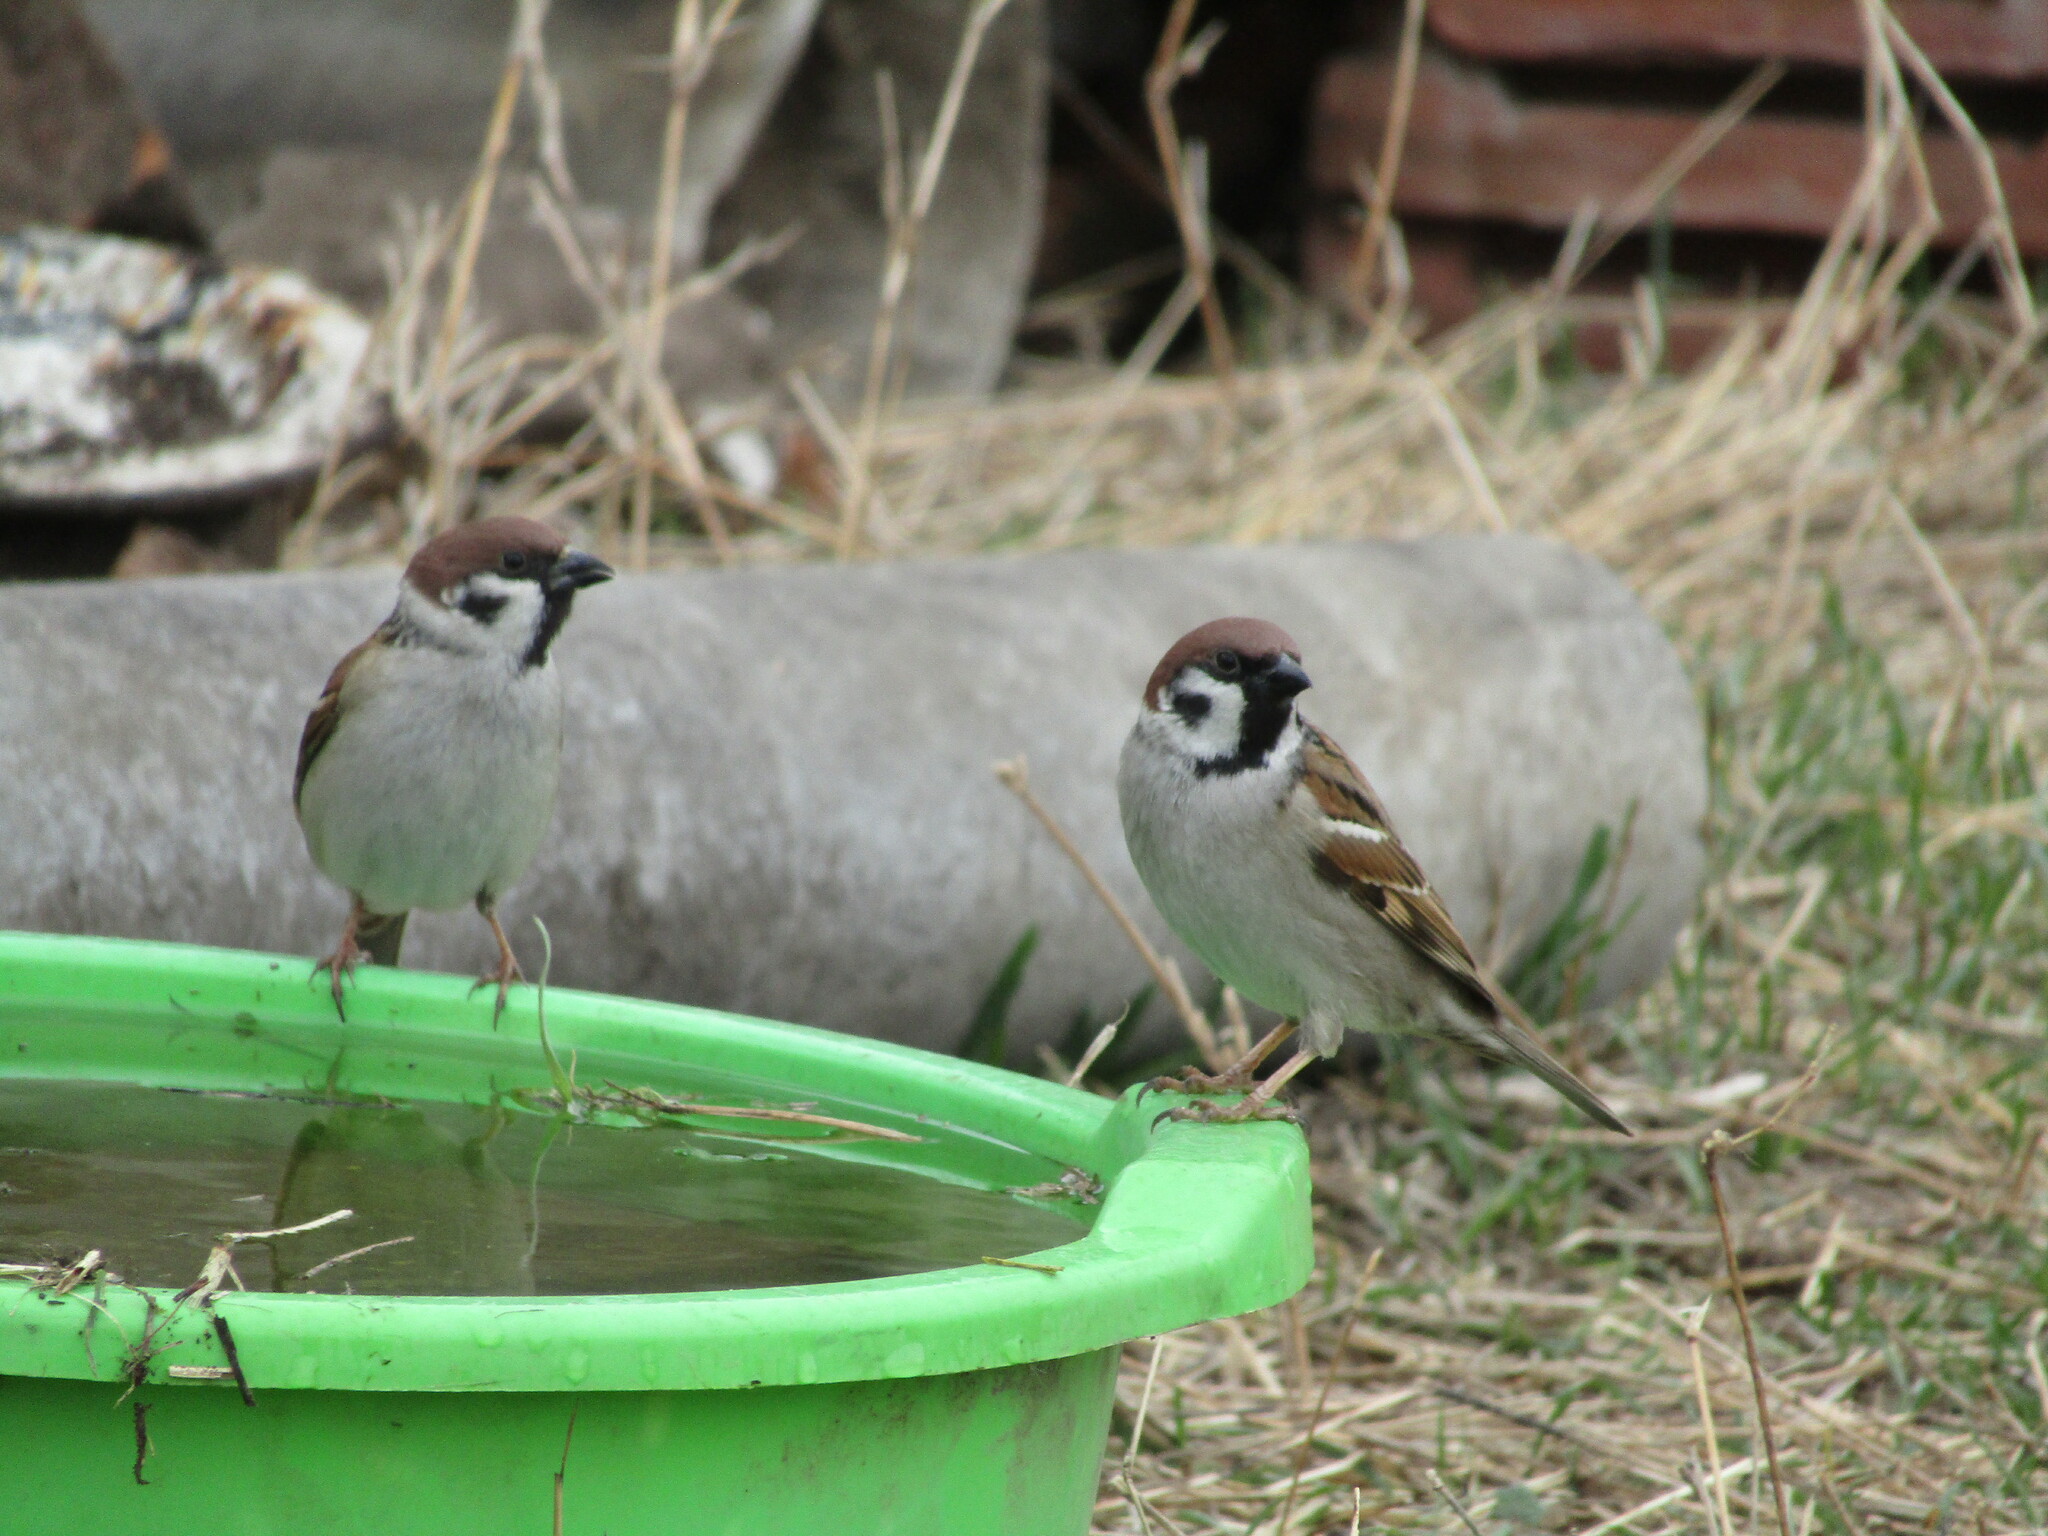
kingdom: Animalia
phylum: Chordata
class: Aves
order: Passeriformes
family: Passeridae
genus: Passer
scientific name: Passer montanus
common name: Eurasian tree sparrow
